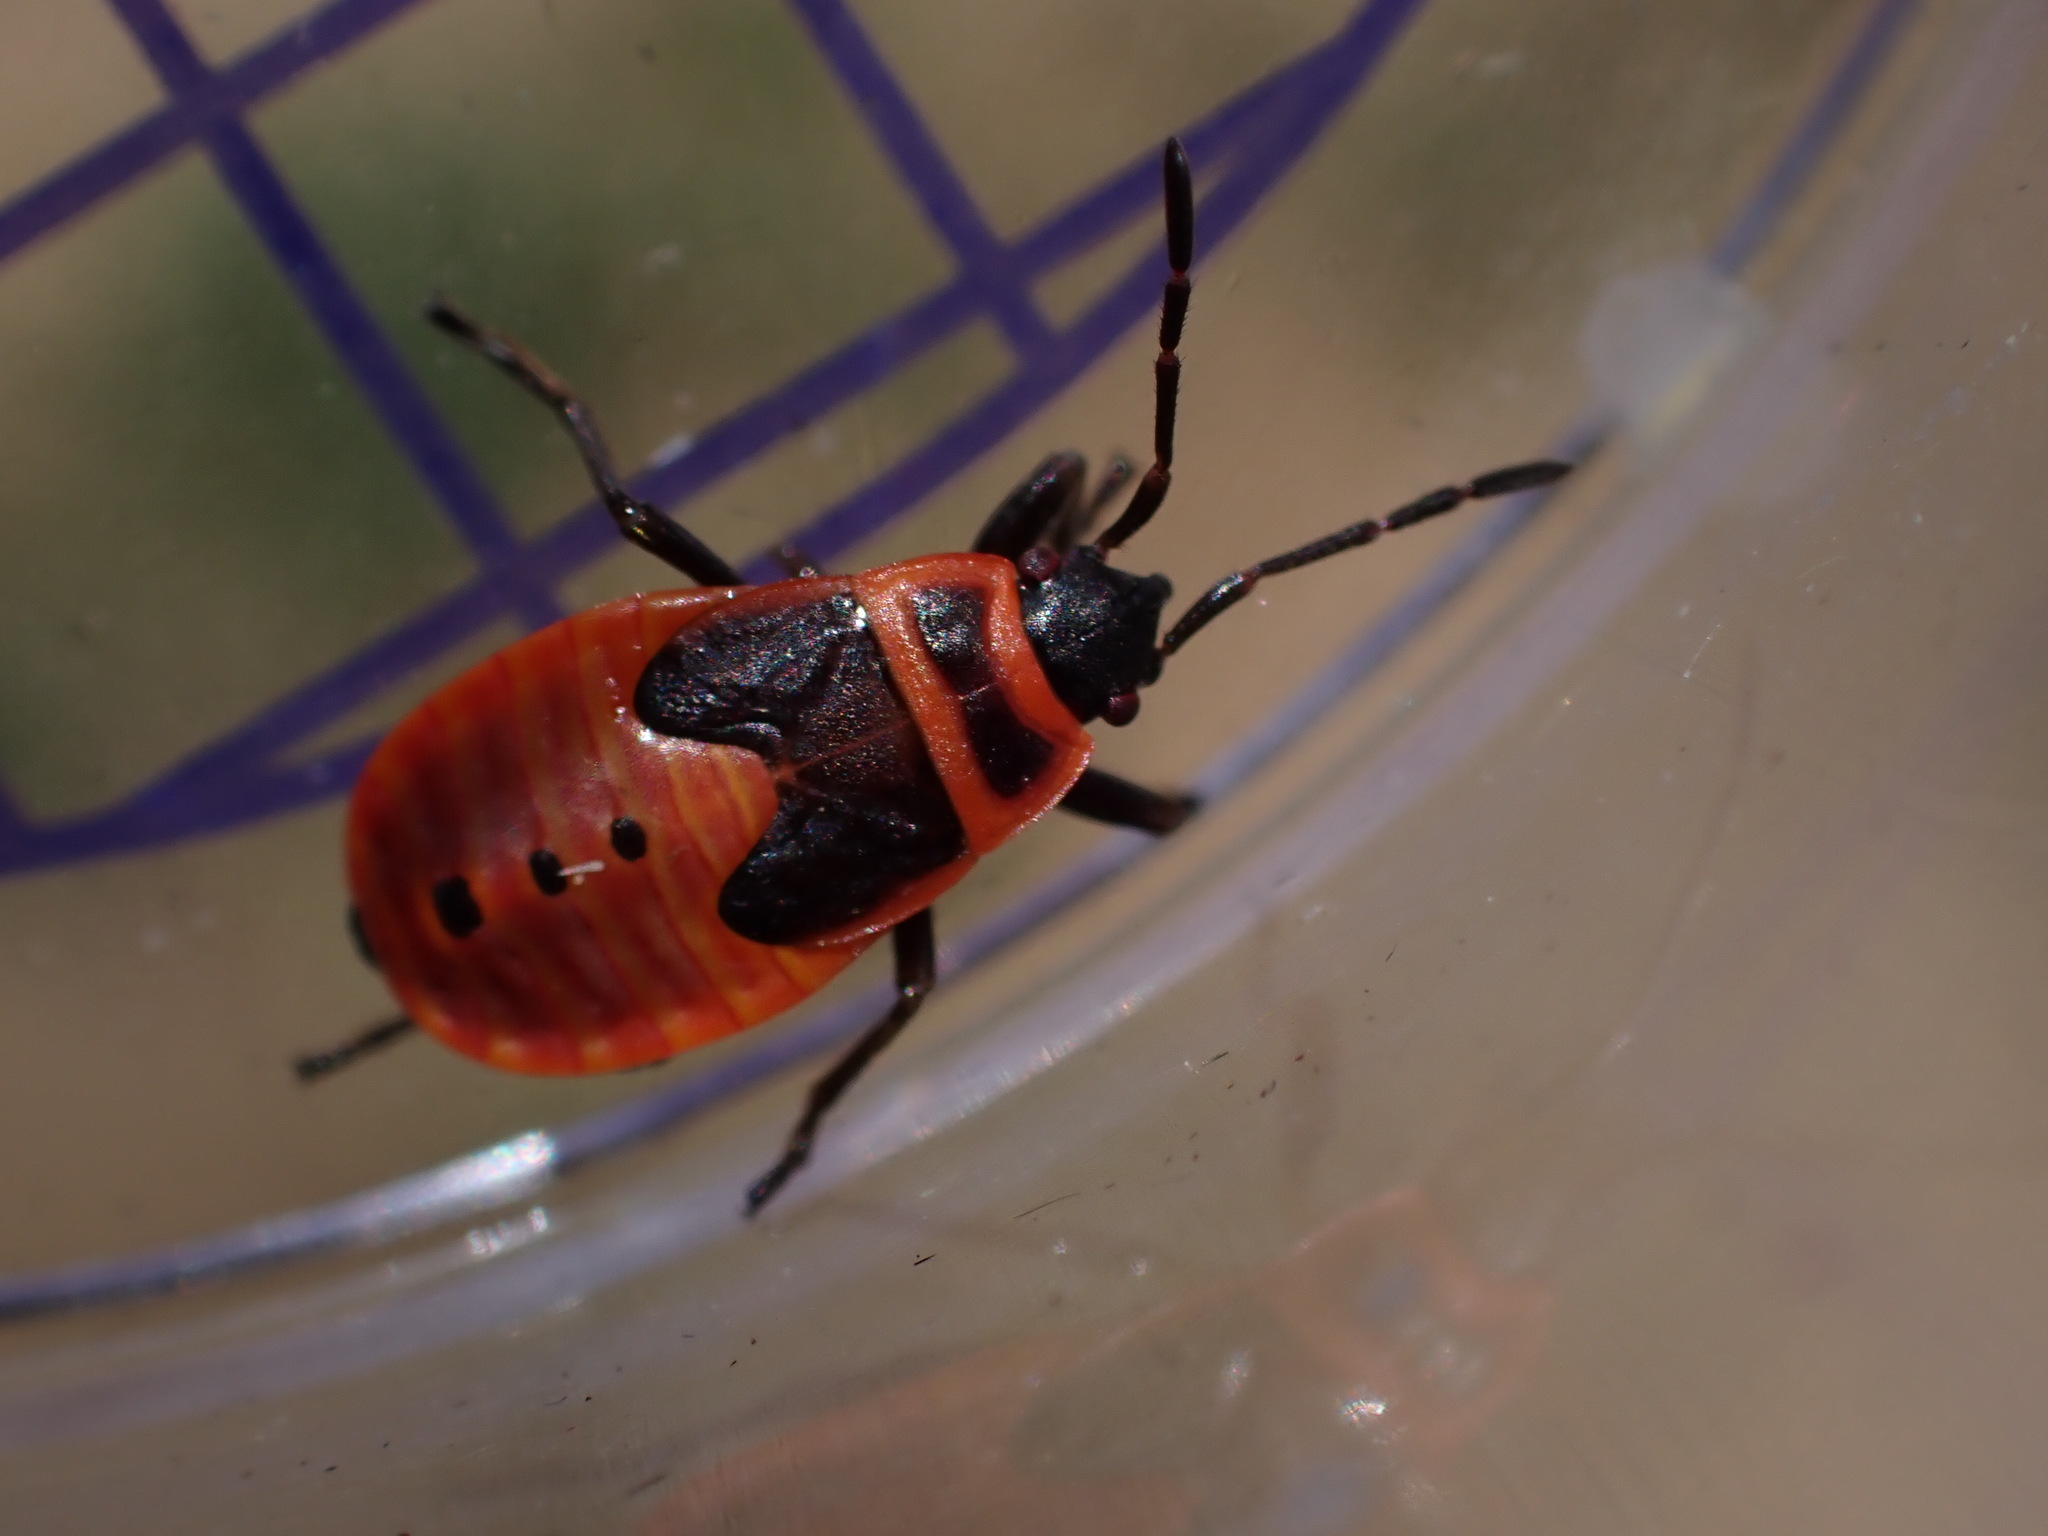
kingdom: Animalia
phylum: Arthropoda
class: Insecta
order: Hemiptera
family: Pyrrhocoridae
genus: Pyrrhocoris
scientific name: Pyrrhocoris apterus
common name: Firebug
